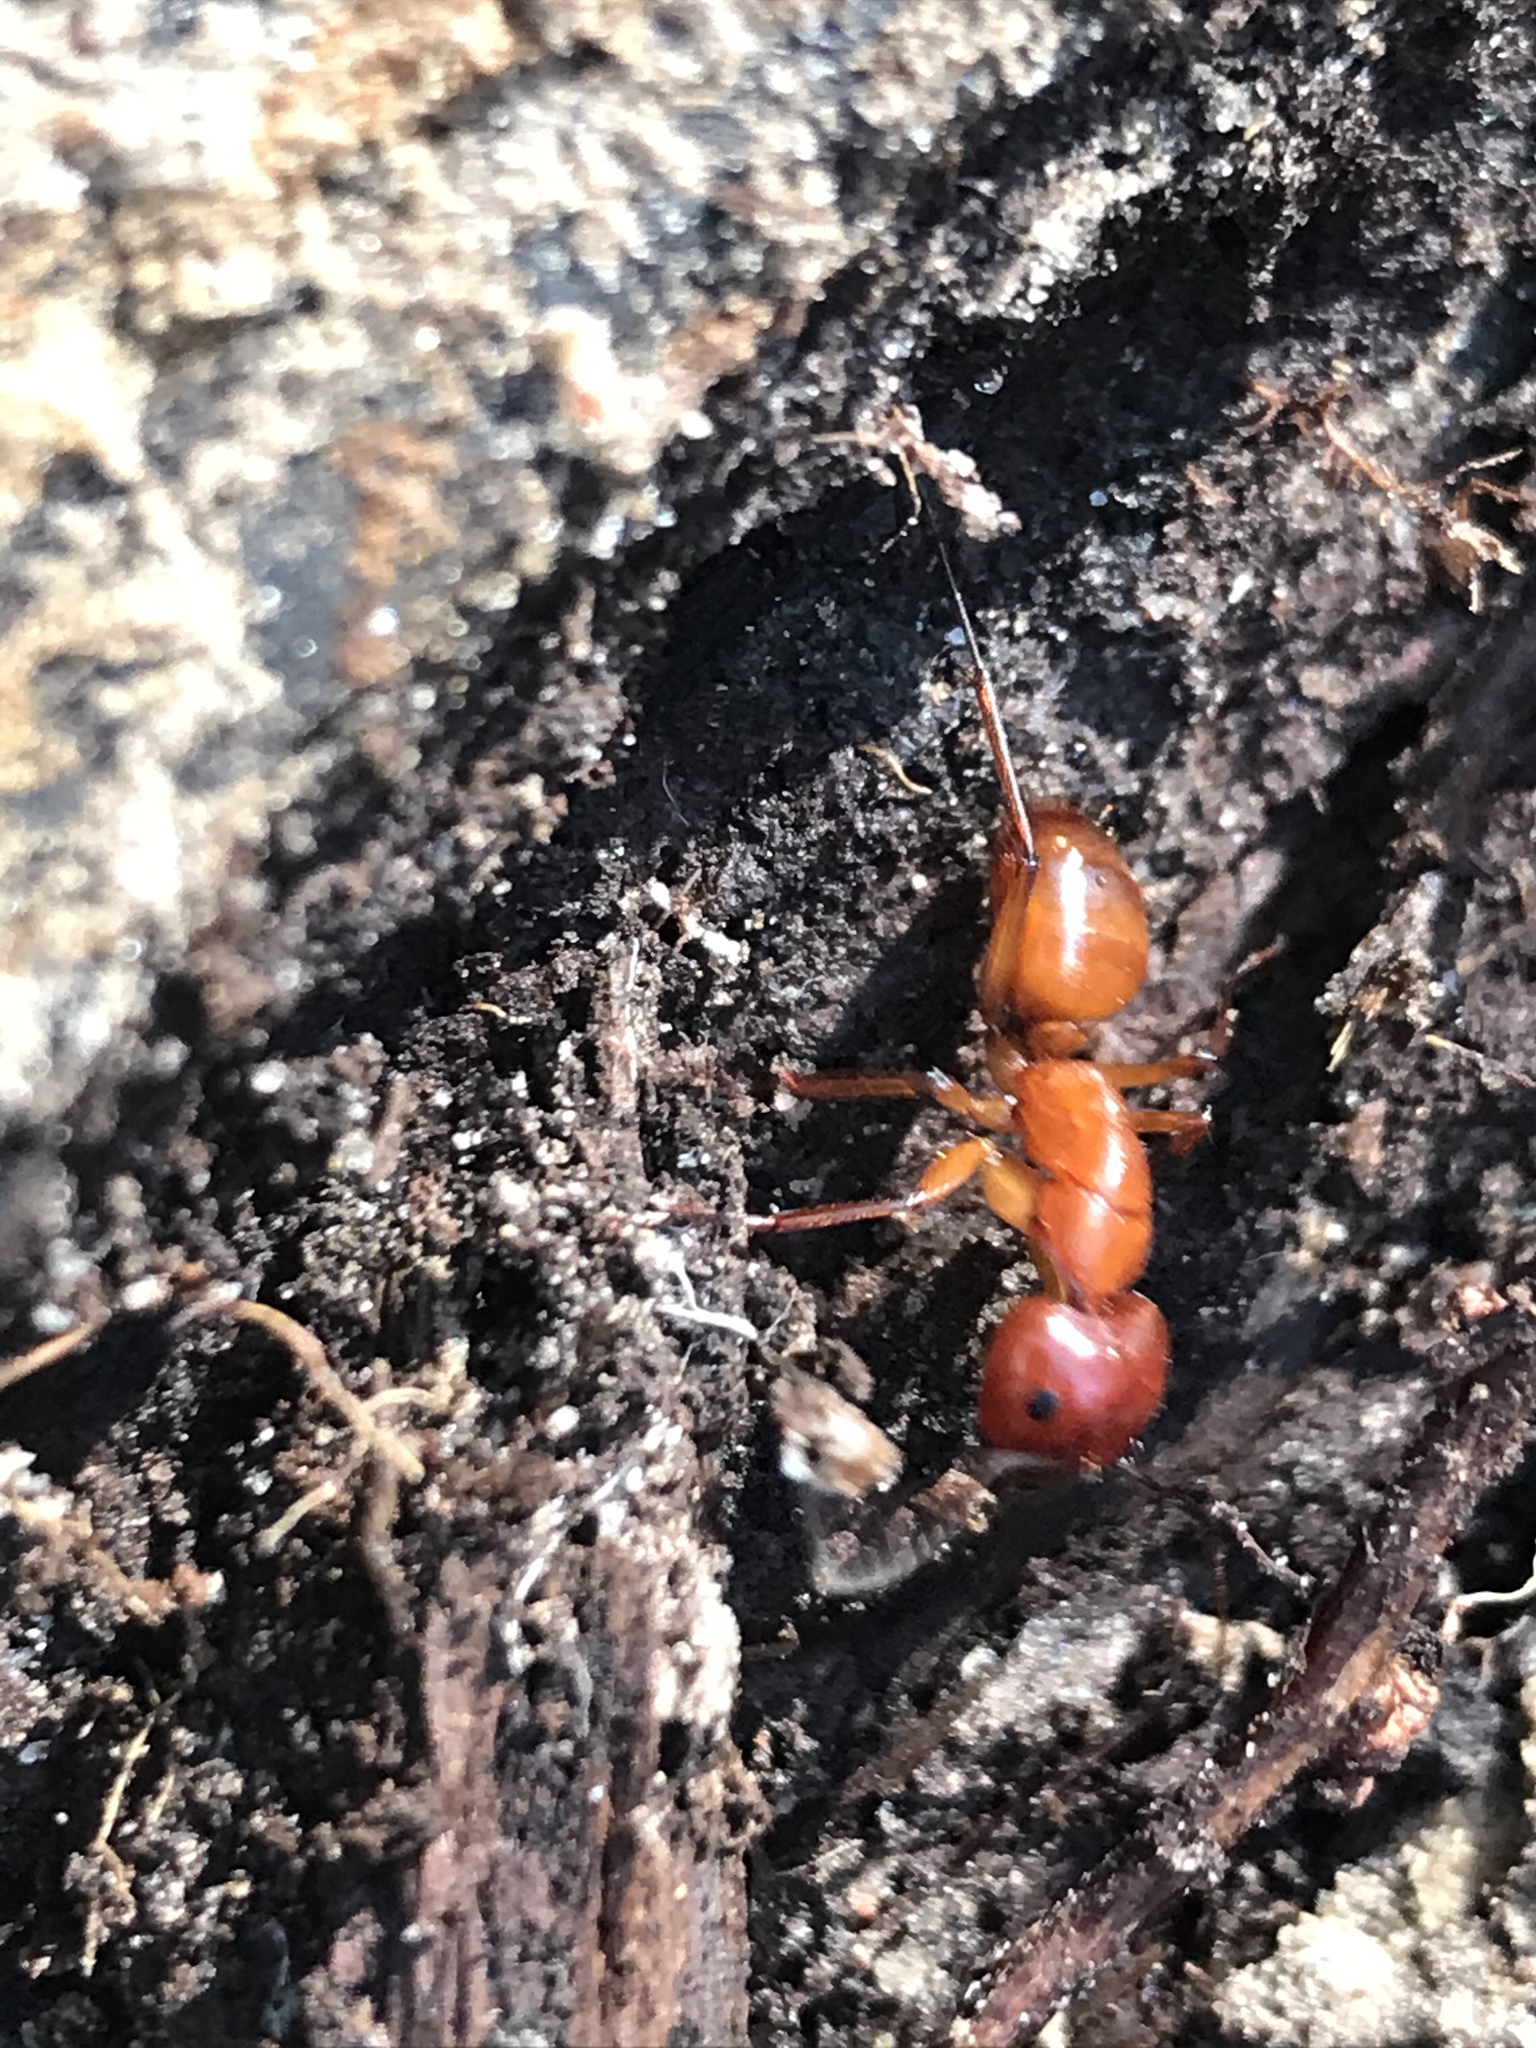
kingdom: Animalia
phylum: Arthropoda
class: Insecta
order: Hymenoptera
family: Formicidae
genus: Camponotus
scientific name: Camponotus castaneus
